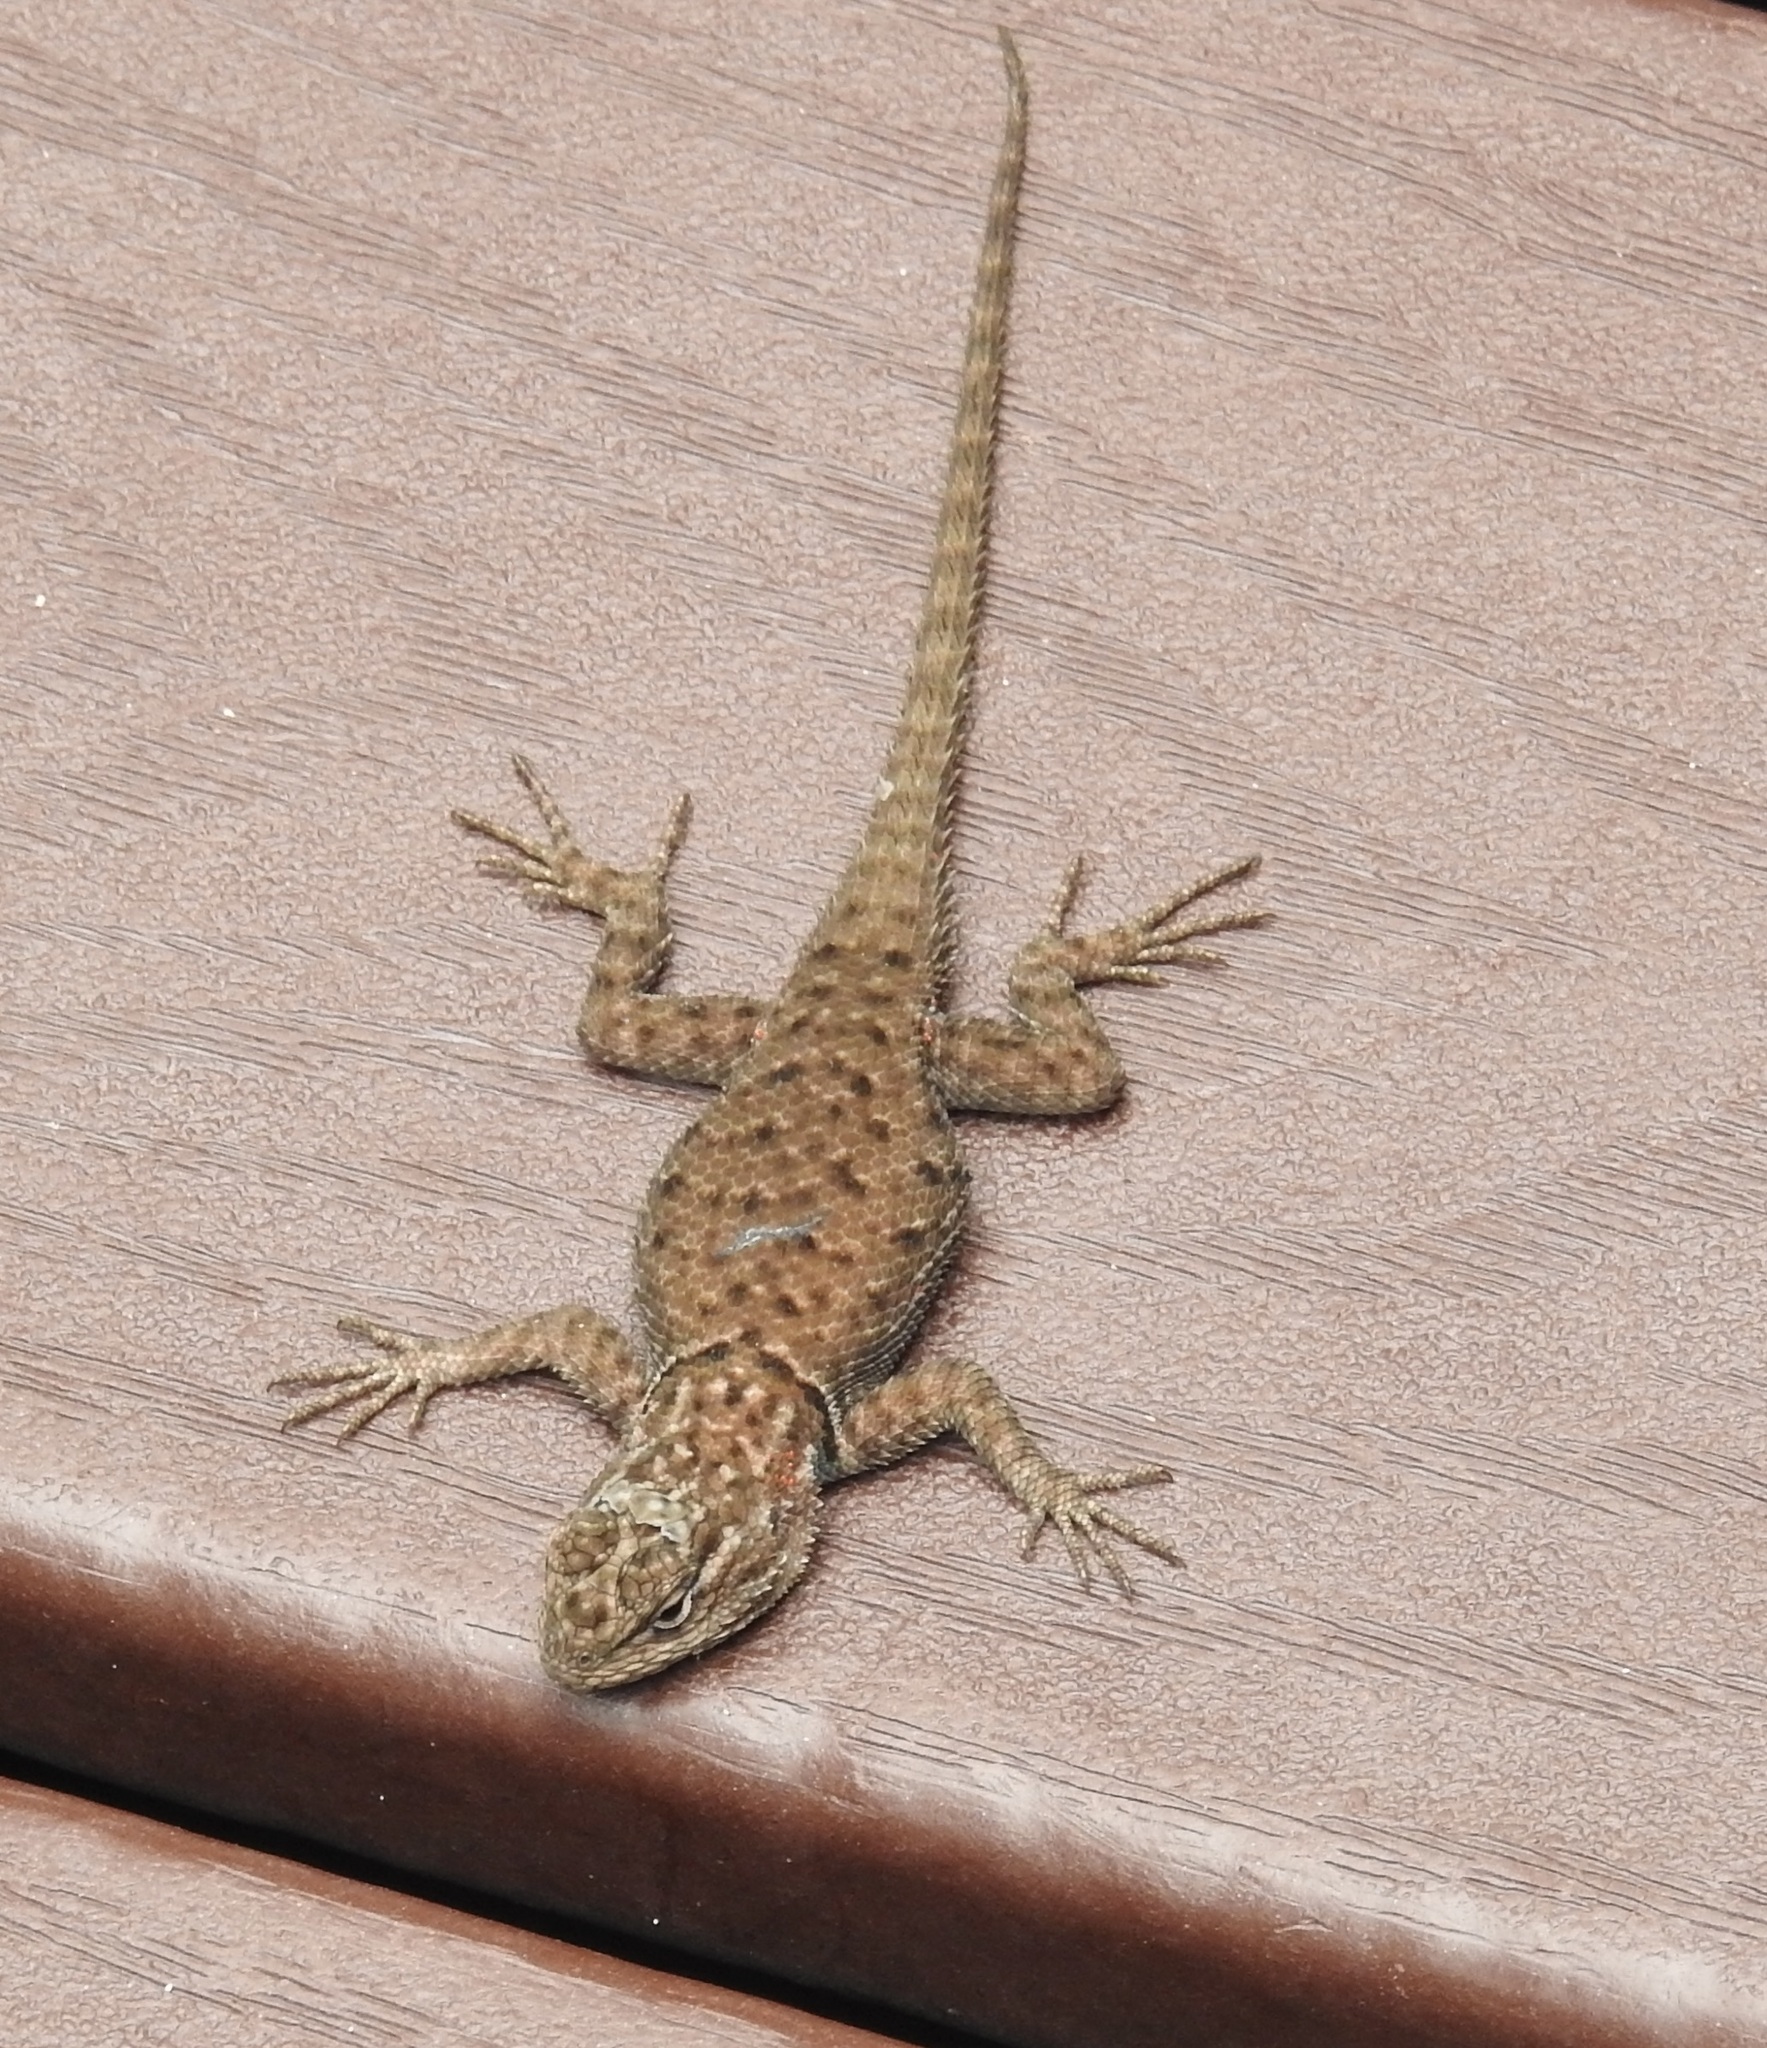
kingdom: Animalia
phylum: Chordata
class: Squamata
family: Phrynosomatidae
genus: Sceloporus
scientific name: Sceloporus jarrovii
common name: Yarrow's spiny lizard
